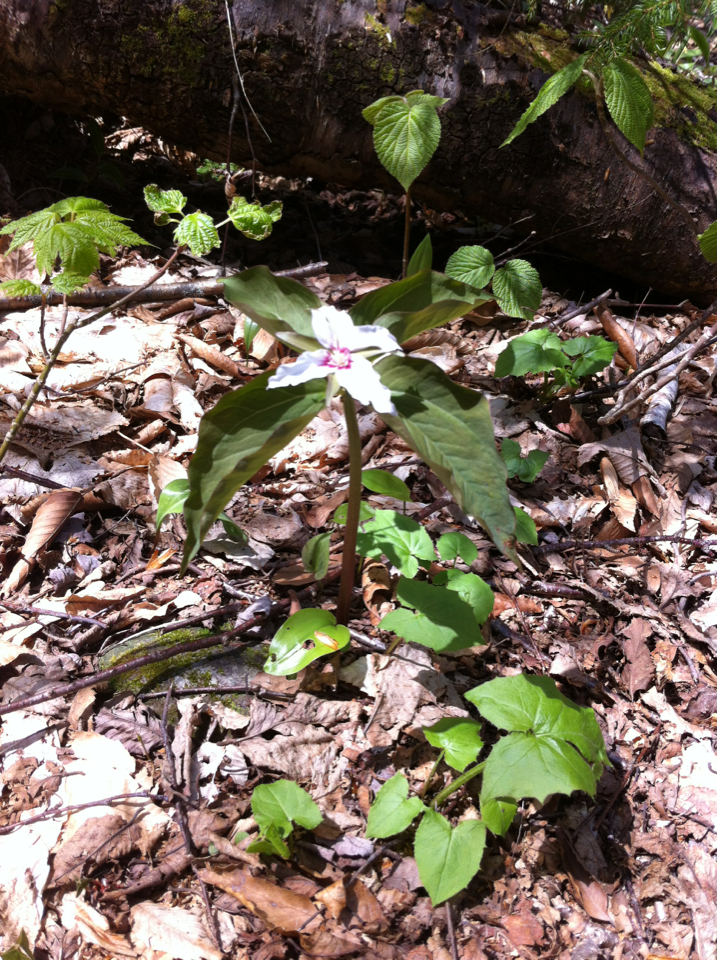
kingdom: Plantae
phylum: Tracheophyta
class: Liliopsida
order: Liliales
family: Melanthiaceae
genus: Trillium
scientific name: Trillium undulatum
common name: Paint trillium
